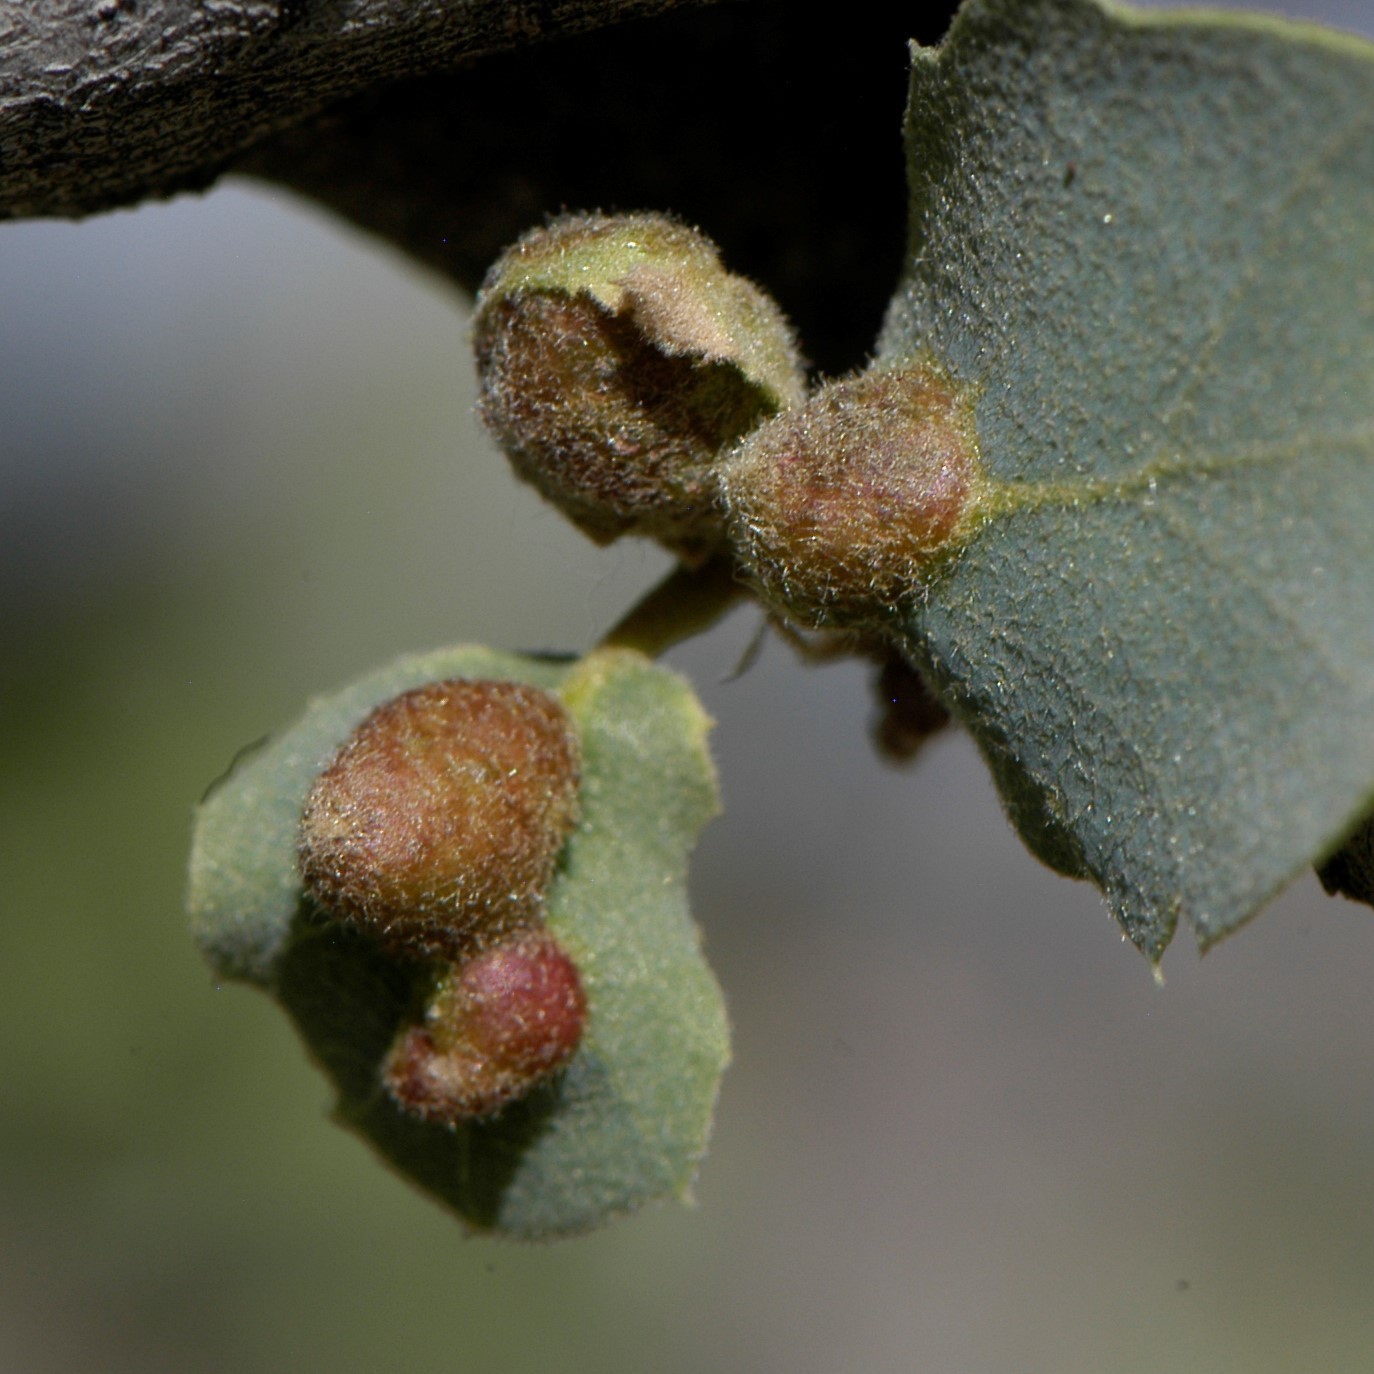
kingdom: Animalia
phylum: Arthropoda
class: Insecta
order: Hymenoptera
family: Cynipidae
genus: Andricus
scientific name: Andricus
